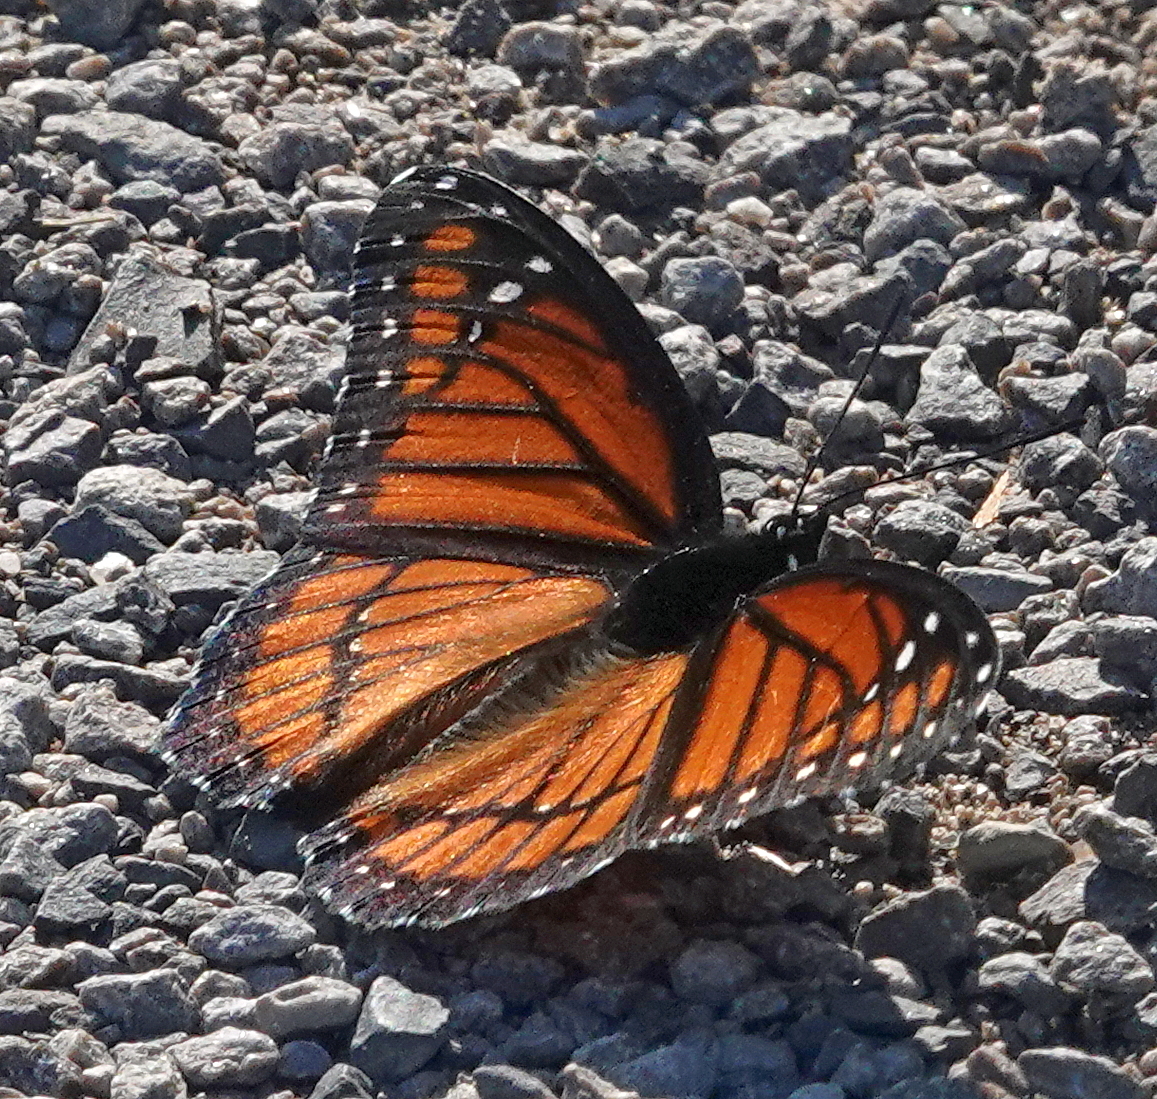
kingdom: Animalia
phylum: Arthropoda
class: Insecta
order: Lepidoptera
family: Nymphalidae
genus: Limenitis
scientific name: Limenitis archippus
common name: Viceroy
